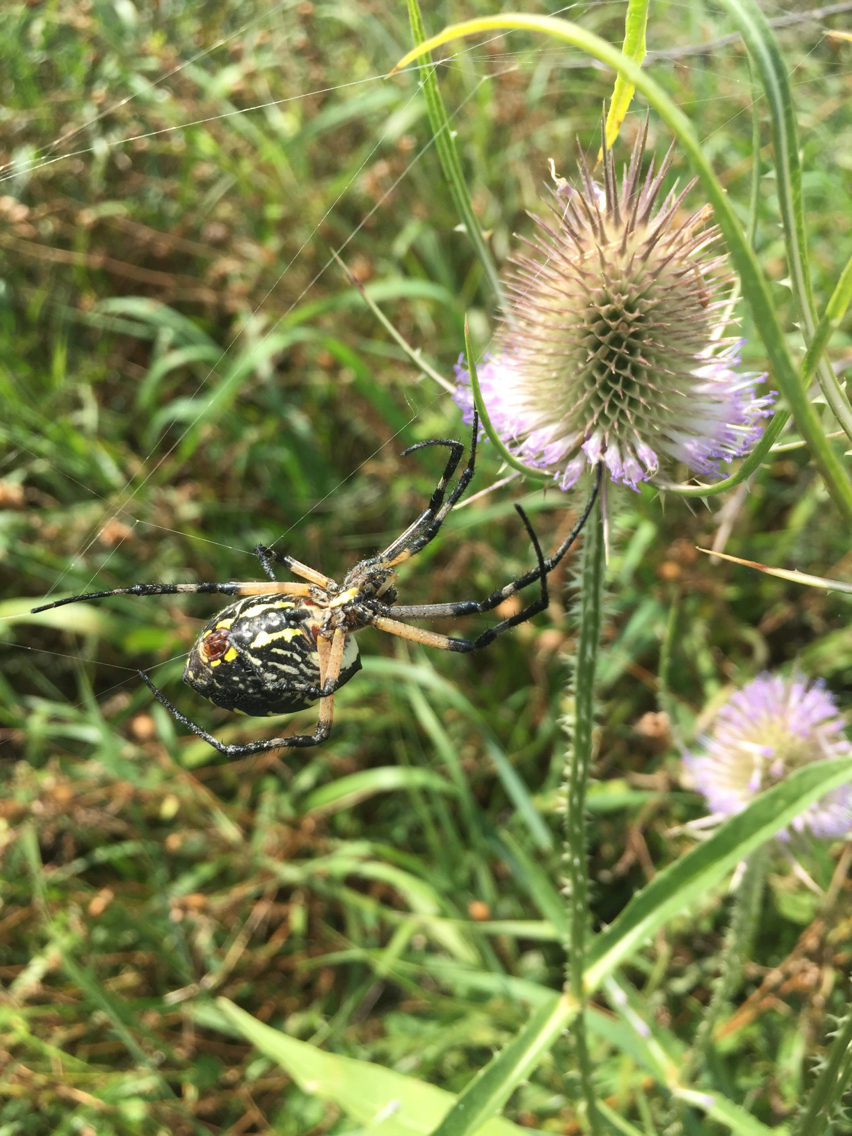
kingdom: Animalia
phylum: Arthropoda
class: Arachnida
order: Araneae
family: Araneidae
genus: Argiope
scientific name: Argiope aurantia
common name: Orb weavers
